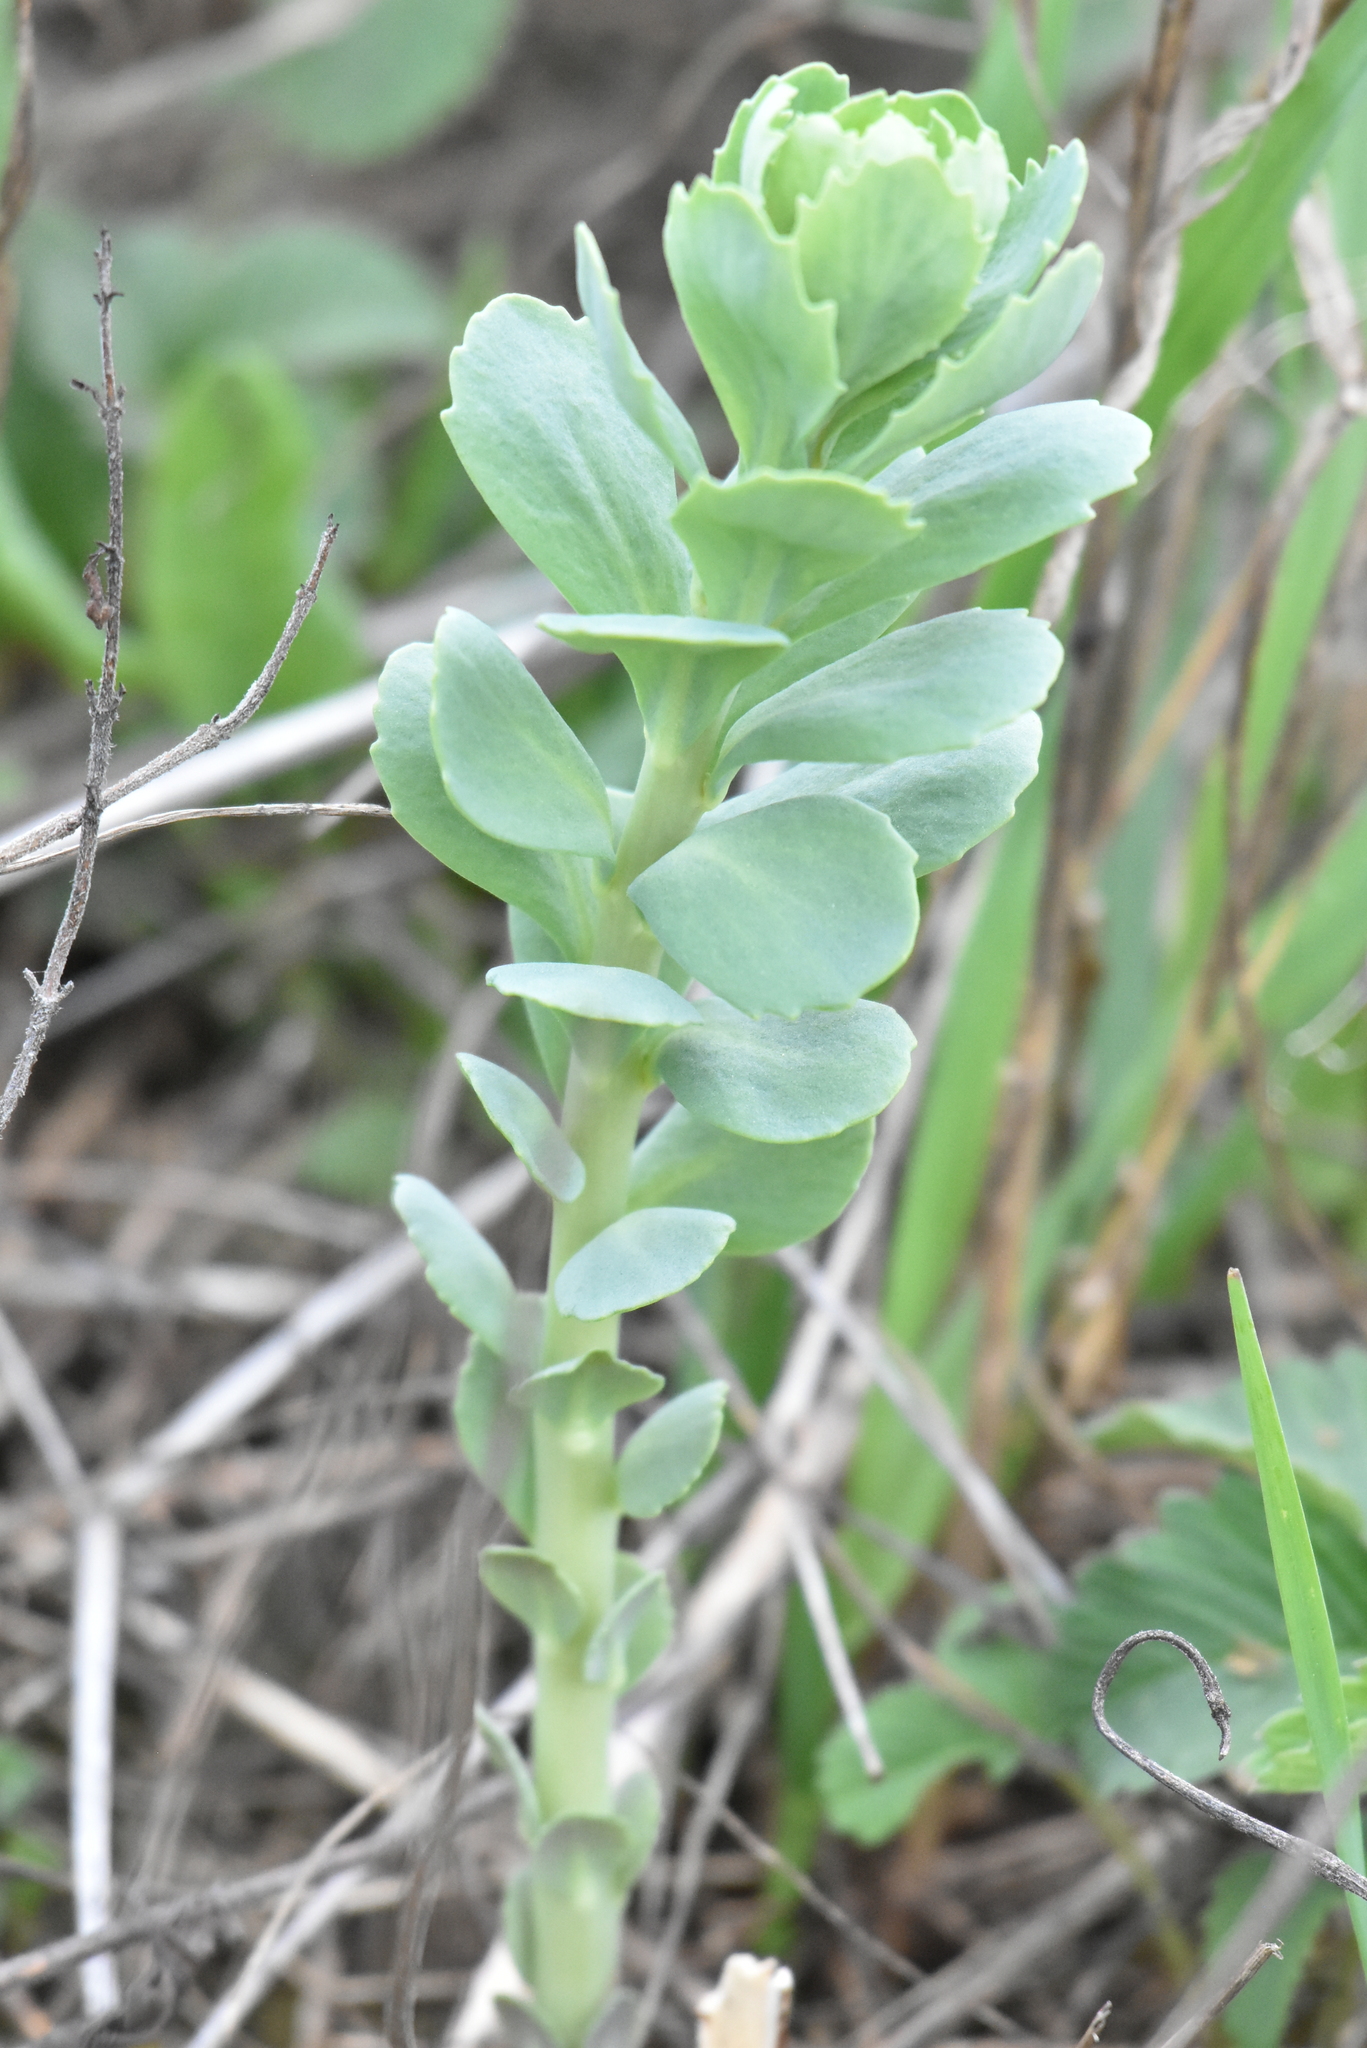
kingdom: Plantae
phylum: Tracheophyta
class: Magnoliopsida
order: Saxifragales
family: Crassulaceae
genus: Hylotelephium
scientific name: Hylotelephium telephium
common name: Live-forever
